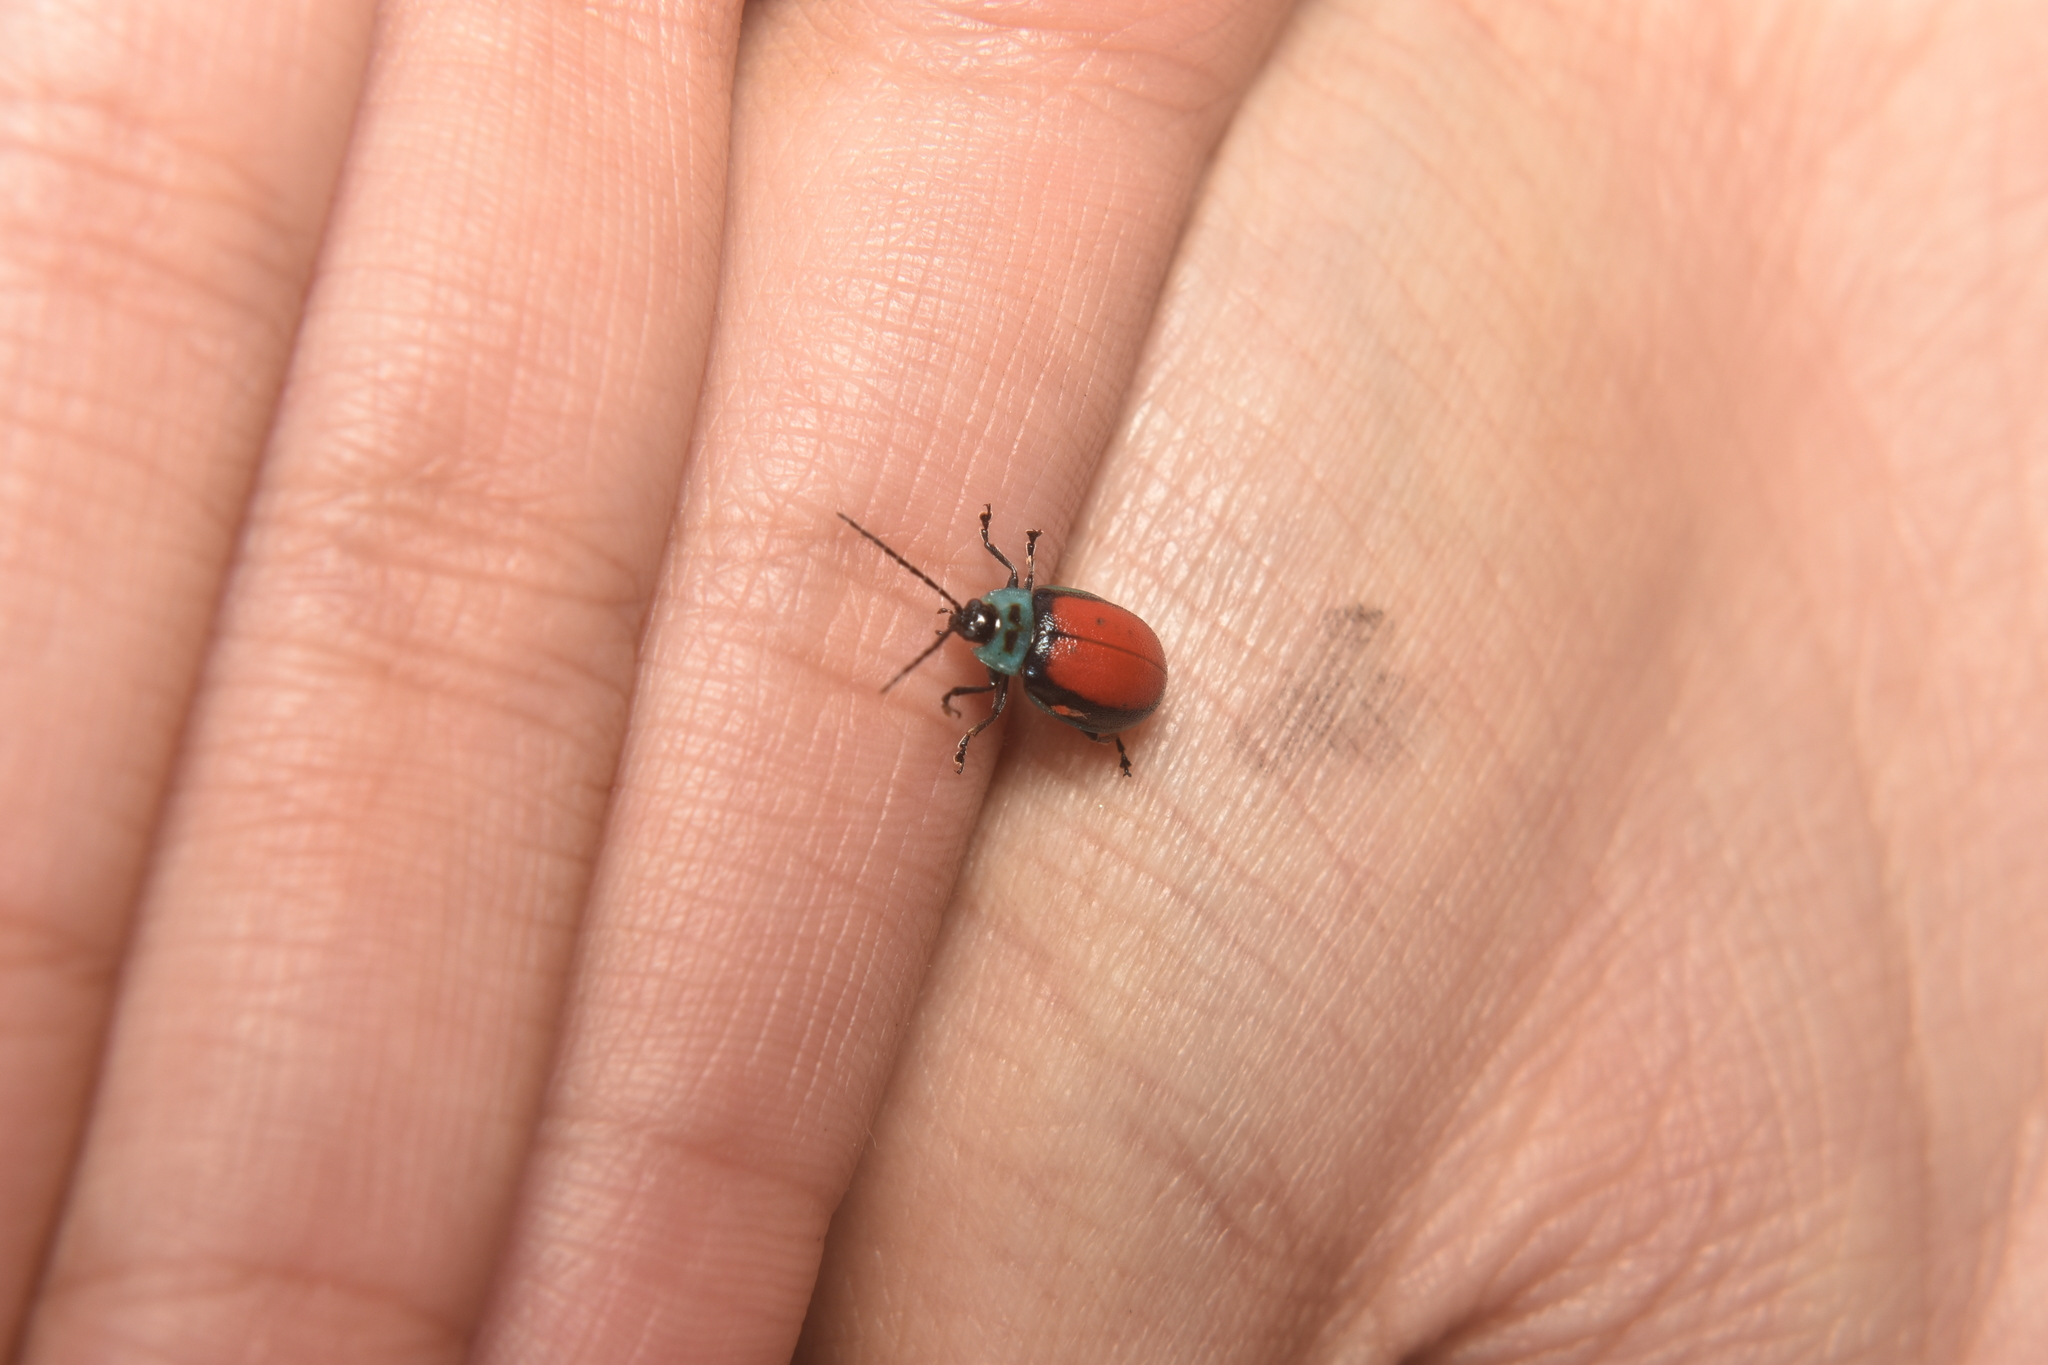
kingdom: Animalia
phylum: Arthropoda
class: Insecta
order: Coleoptera
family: Chrysomelidae
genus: Aspicela
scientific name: Aspicela
